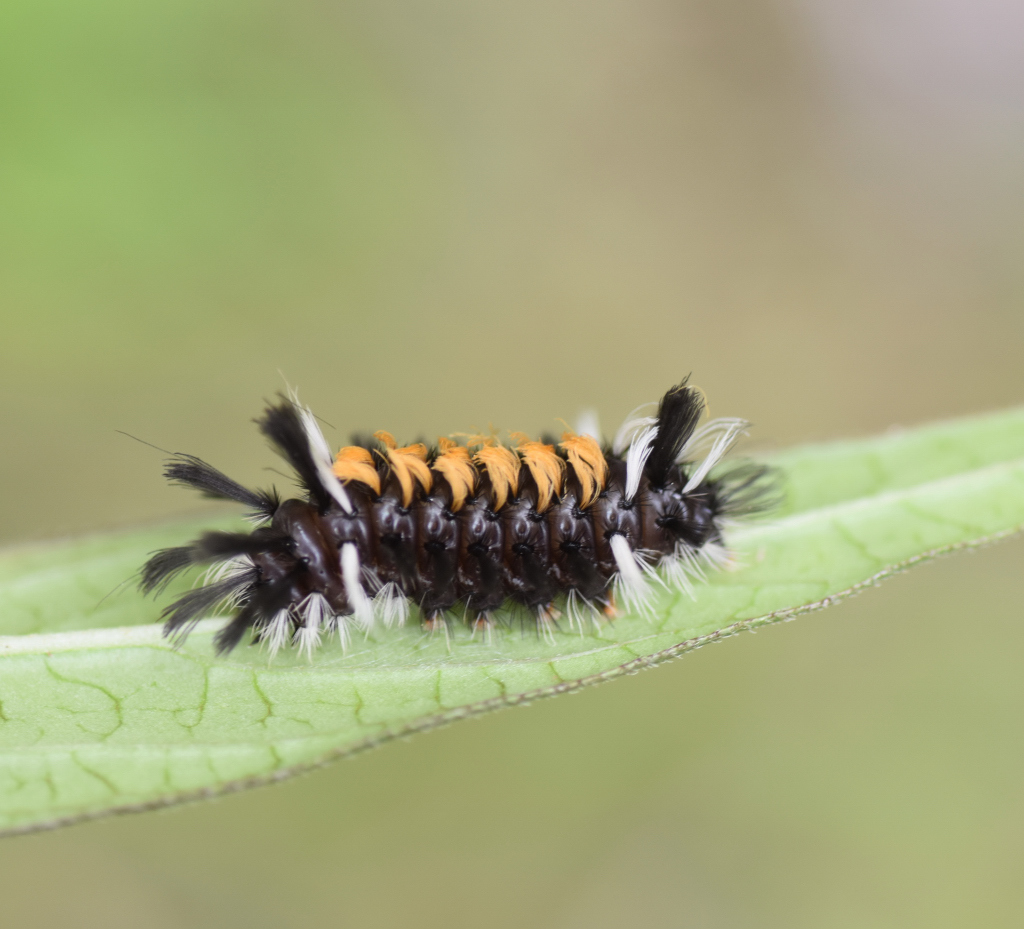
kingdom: Animalia
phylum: Arthropoda
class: Insecta
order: Lepidoptera
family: Erebidae
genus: Euchaetes
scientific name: Euchaetes egle
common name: Milkweed tussock moth
